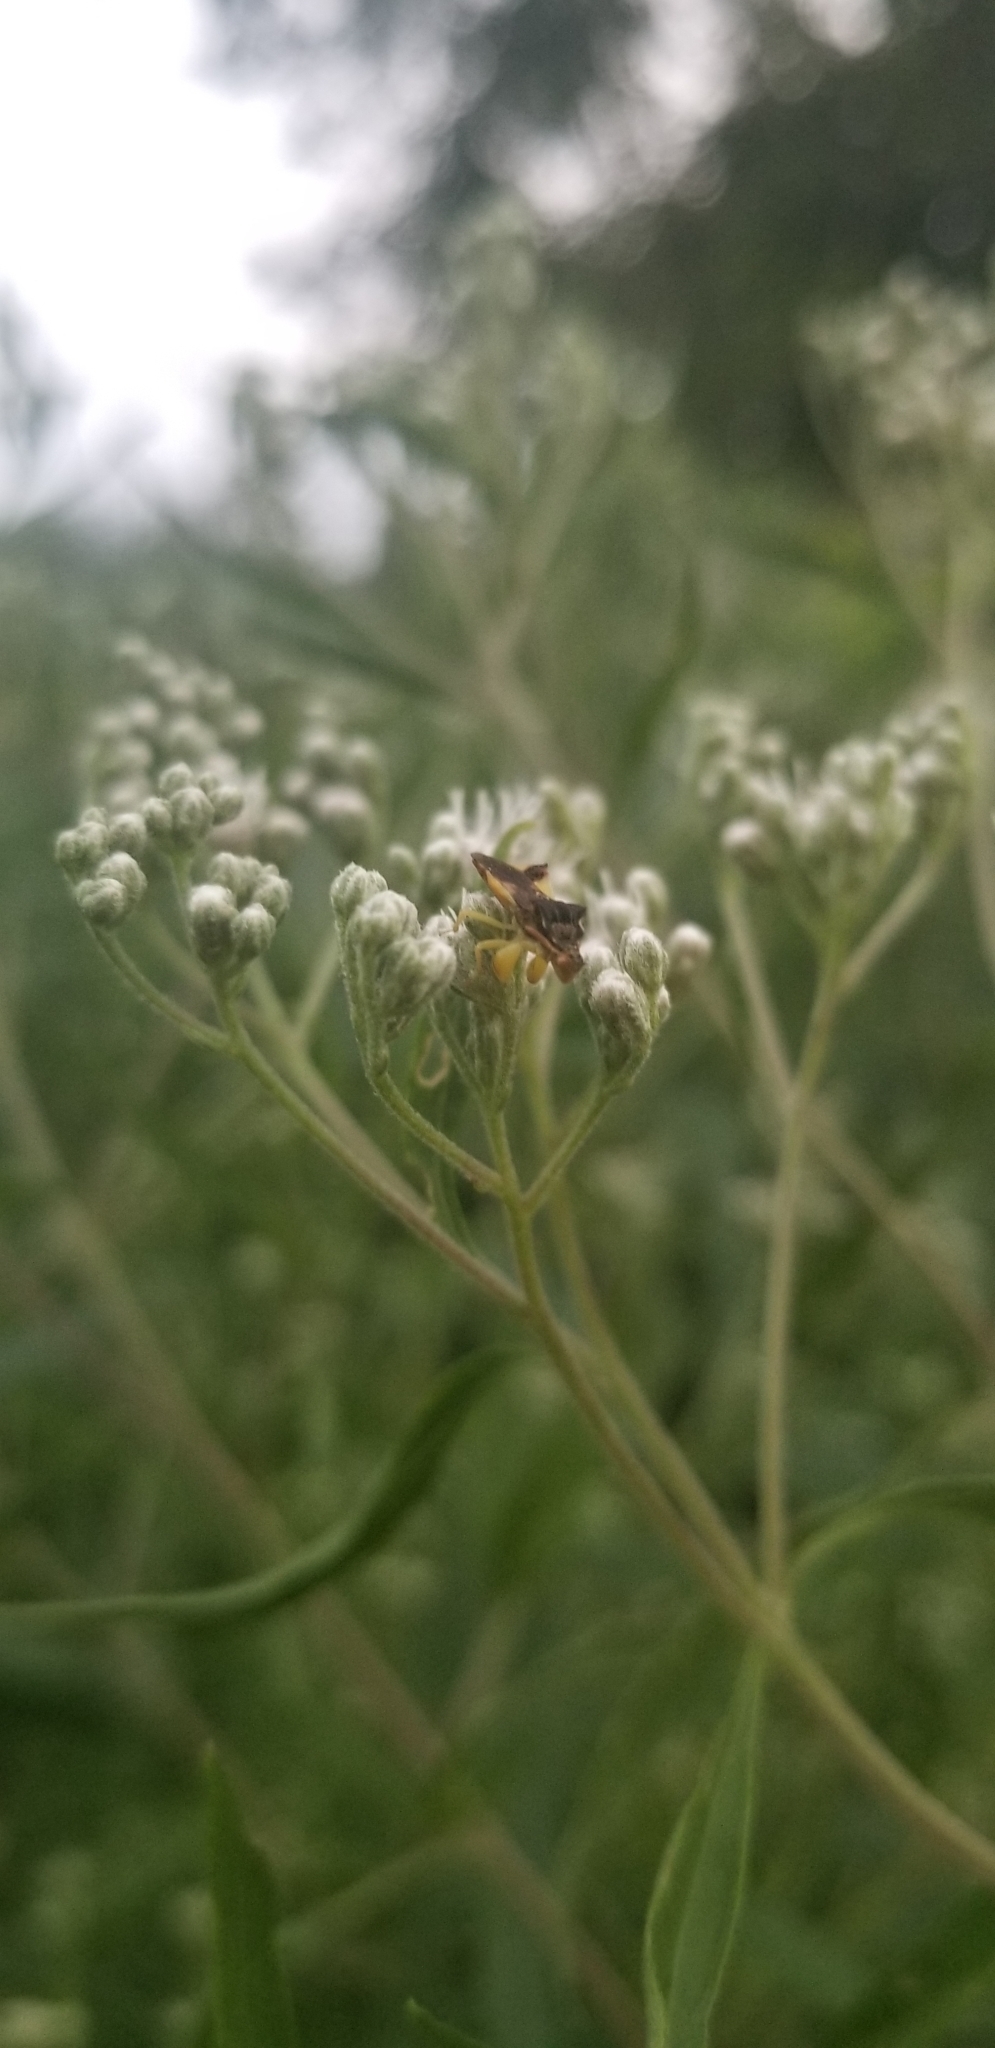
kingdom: Animalia
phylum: Arthropoda
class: Insecta
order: Hemiptera
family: Reduviidae
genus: Phymata
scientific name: Phymata pennsylvanica
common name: Pennsylvania ambush bug
